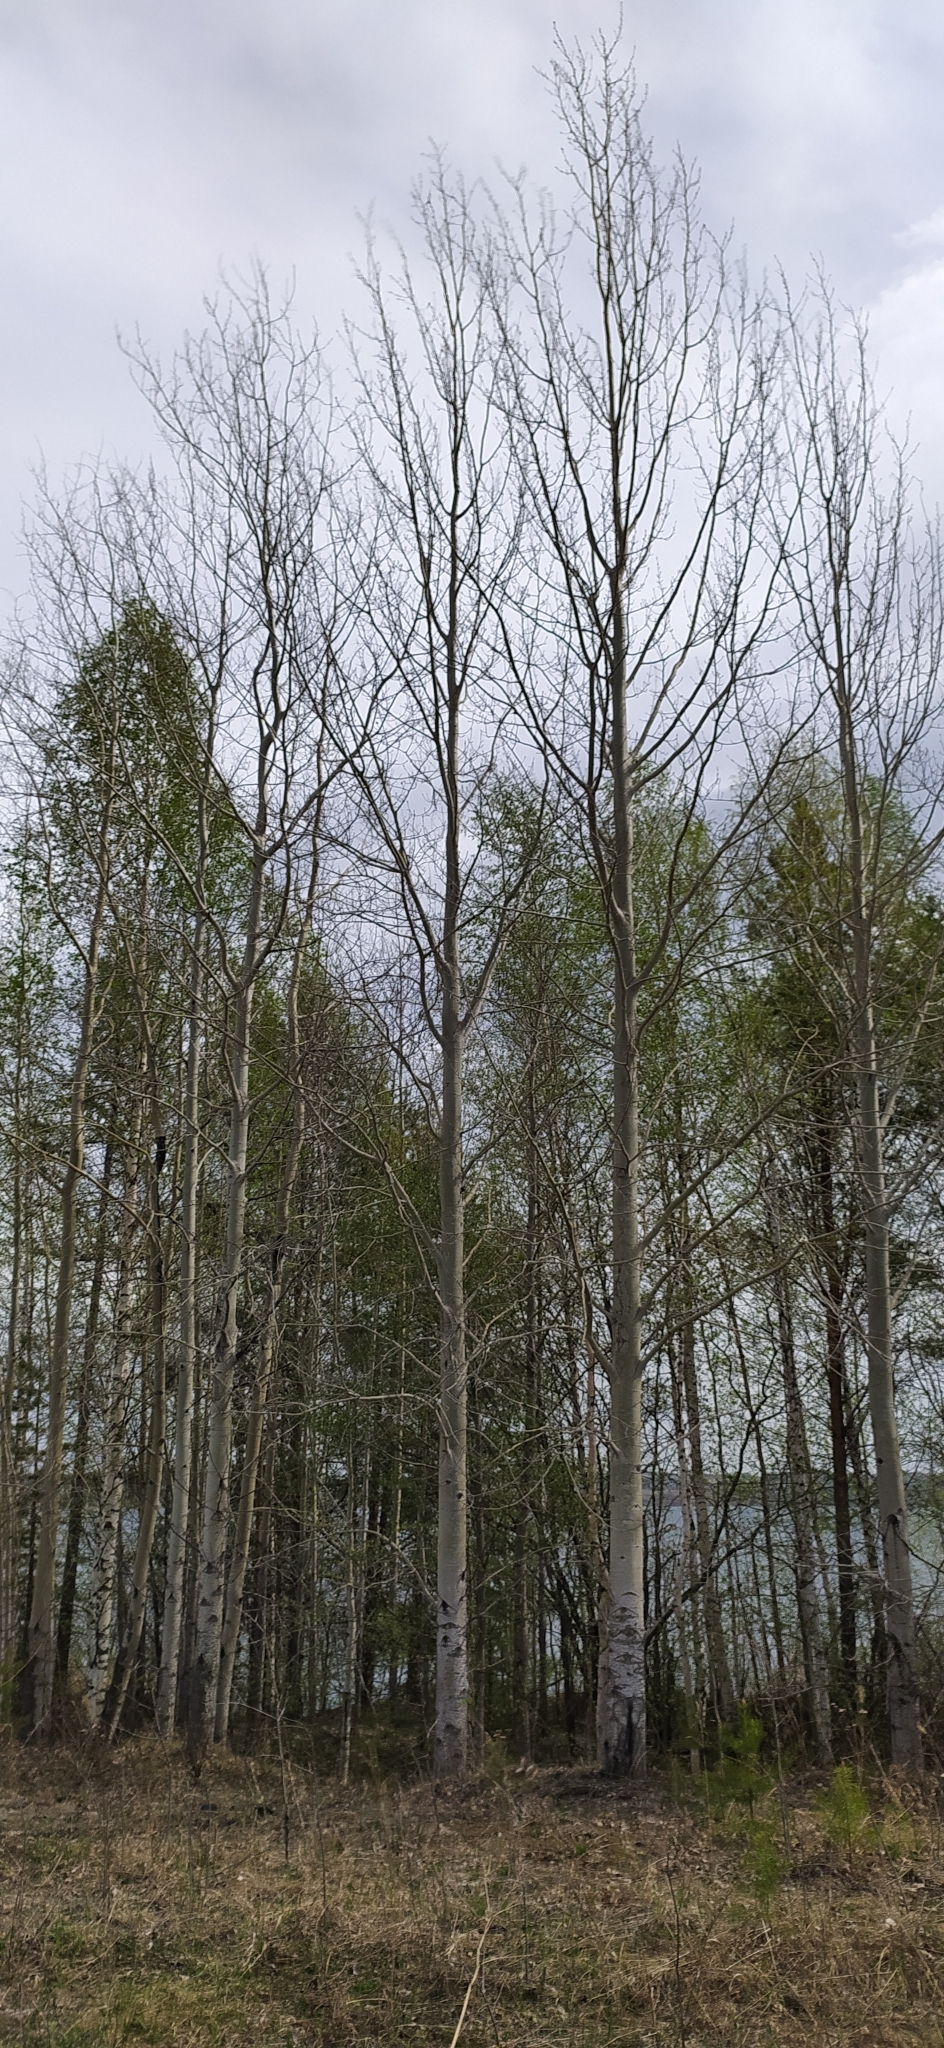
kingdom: Plantae
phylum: Tracheophyta
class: Magnoliopsida
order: Malpighiales
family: Salicaceae
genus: Populus
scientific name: Populus tremula
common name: European aspen
